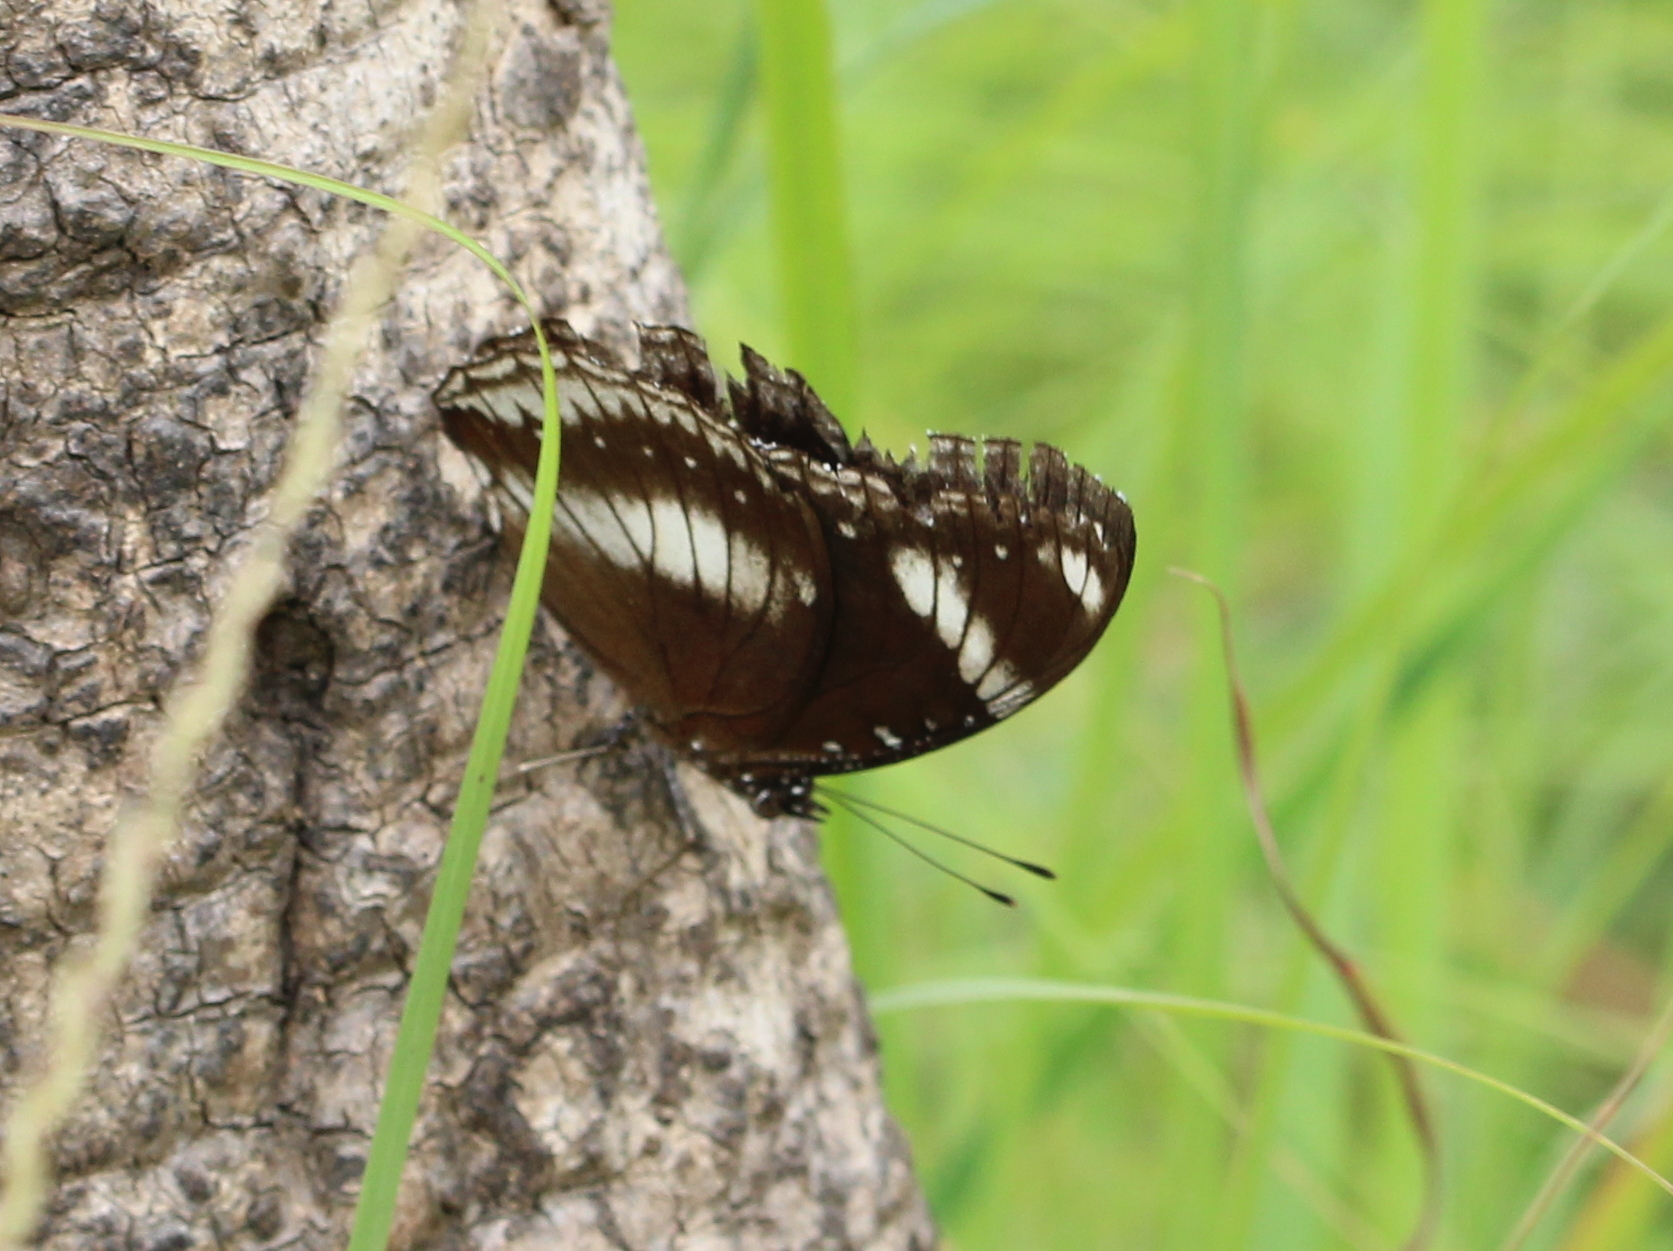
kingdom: Animalia
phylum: Arthropoda
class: Insecta
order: Lepidoptera
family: Nymphalidae
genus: Hypolimnas
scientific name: Hypolimnas bolina
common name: Great eggfly
